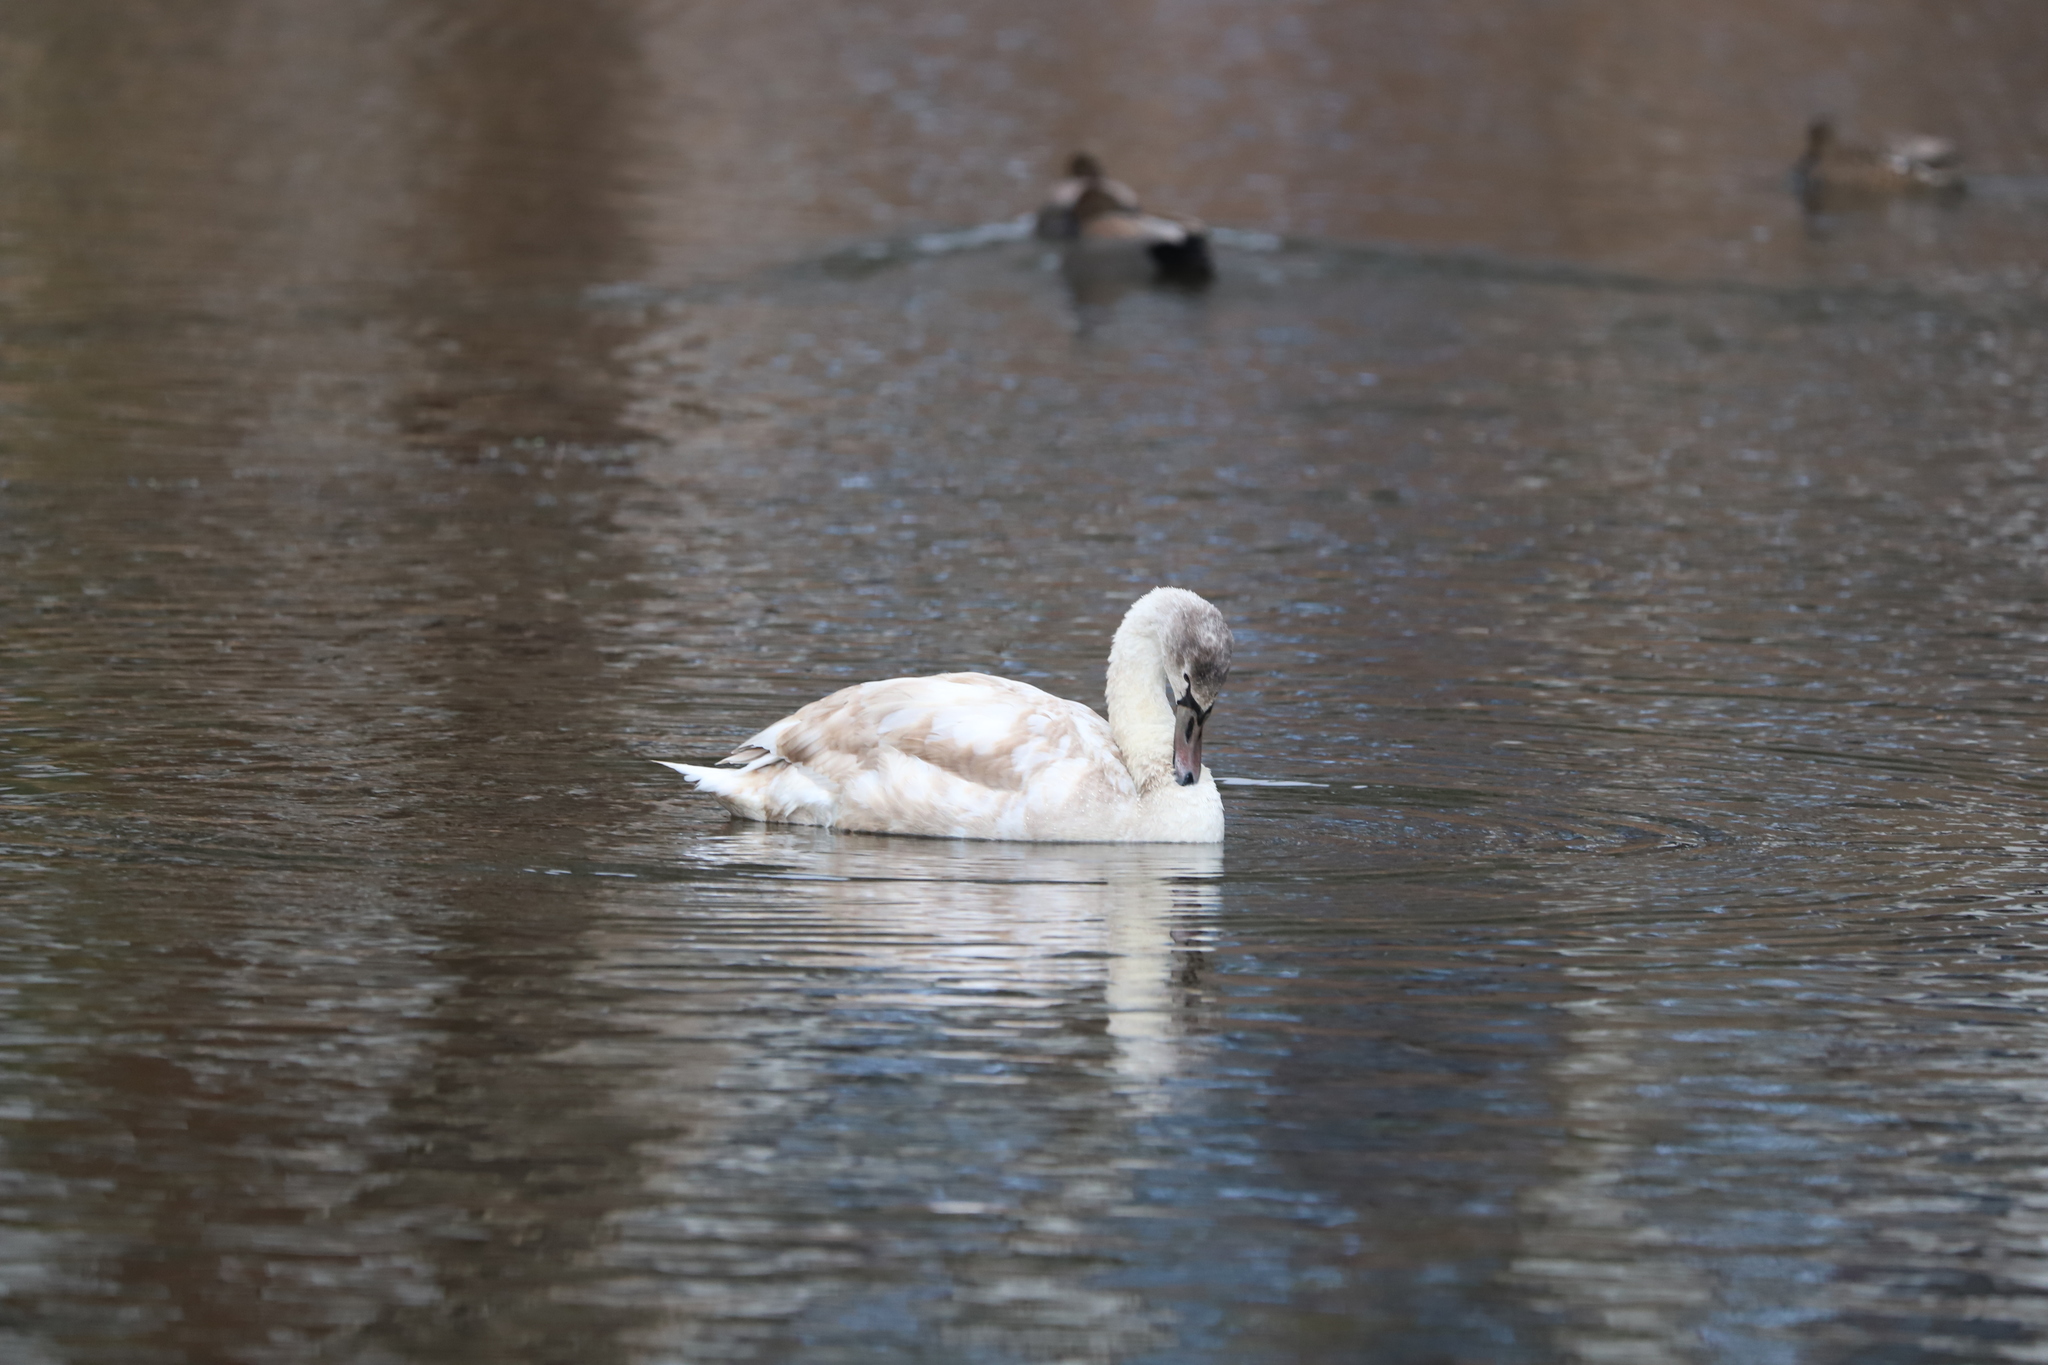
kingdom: Animalia
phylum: Chordata
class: Aves
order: Anseriformes
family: Anatidae
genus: Cygnus
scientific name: Cygnus olor
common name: Mute swan
